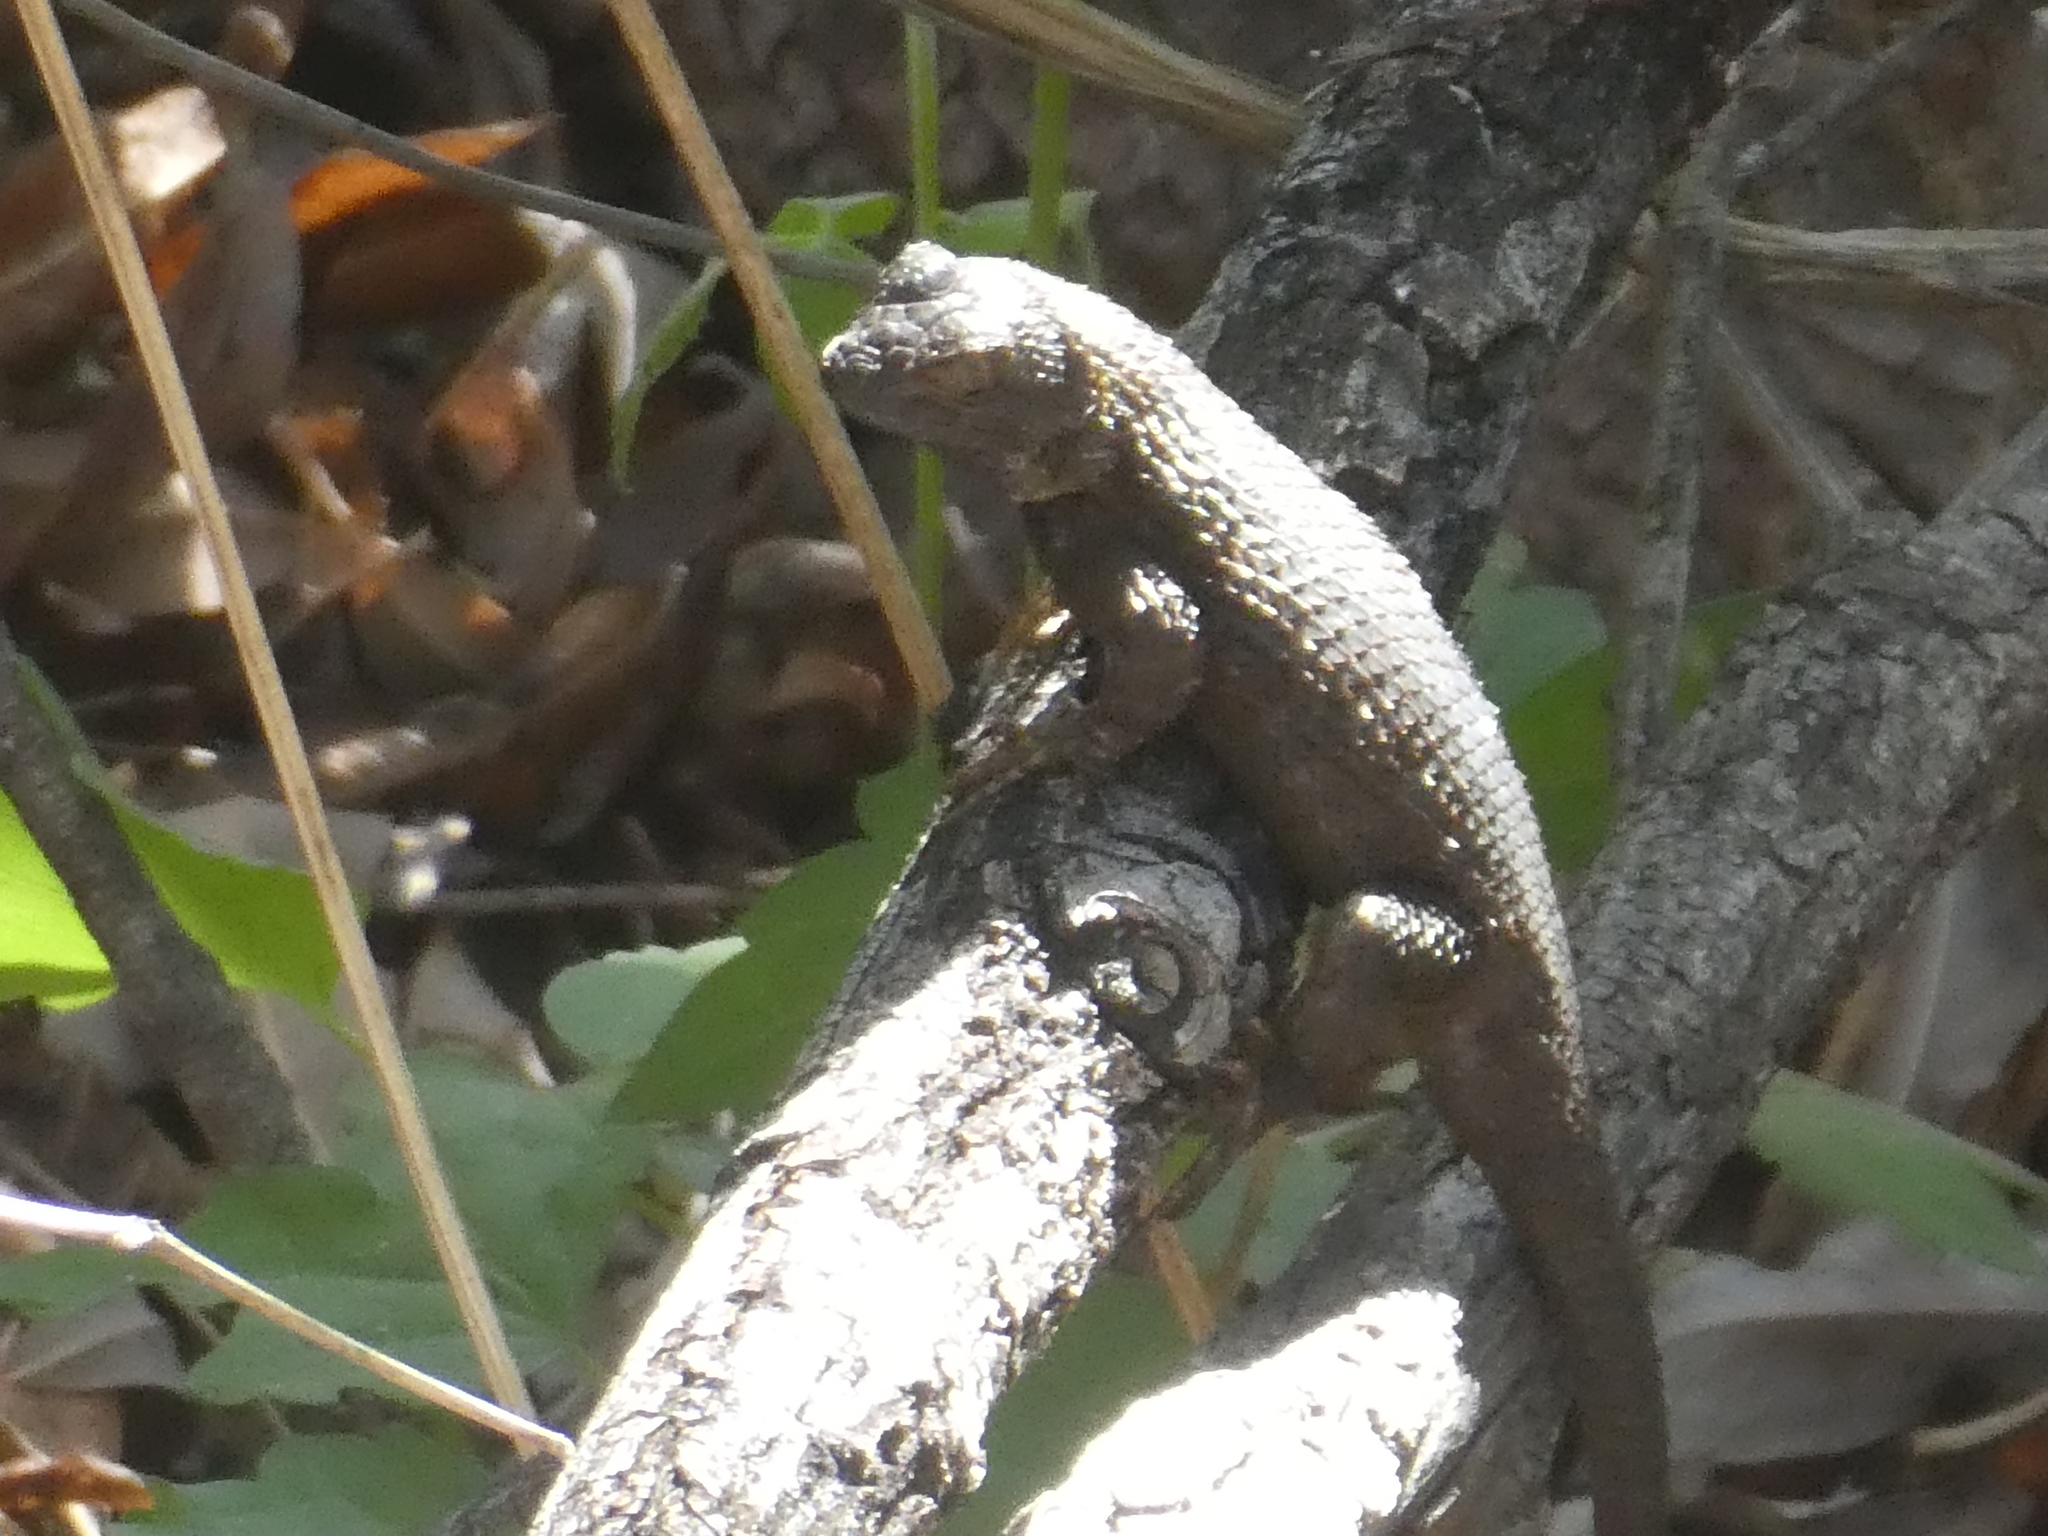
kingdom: Animalia
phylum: Chordata
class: Squamata
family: Phrynosomatidae
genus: Sceloporus
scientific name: Sceloporus occidentalis
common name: Western fence lizard
